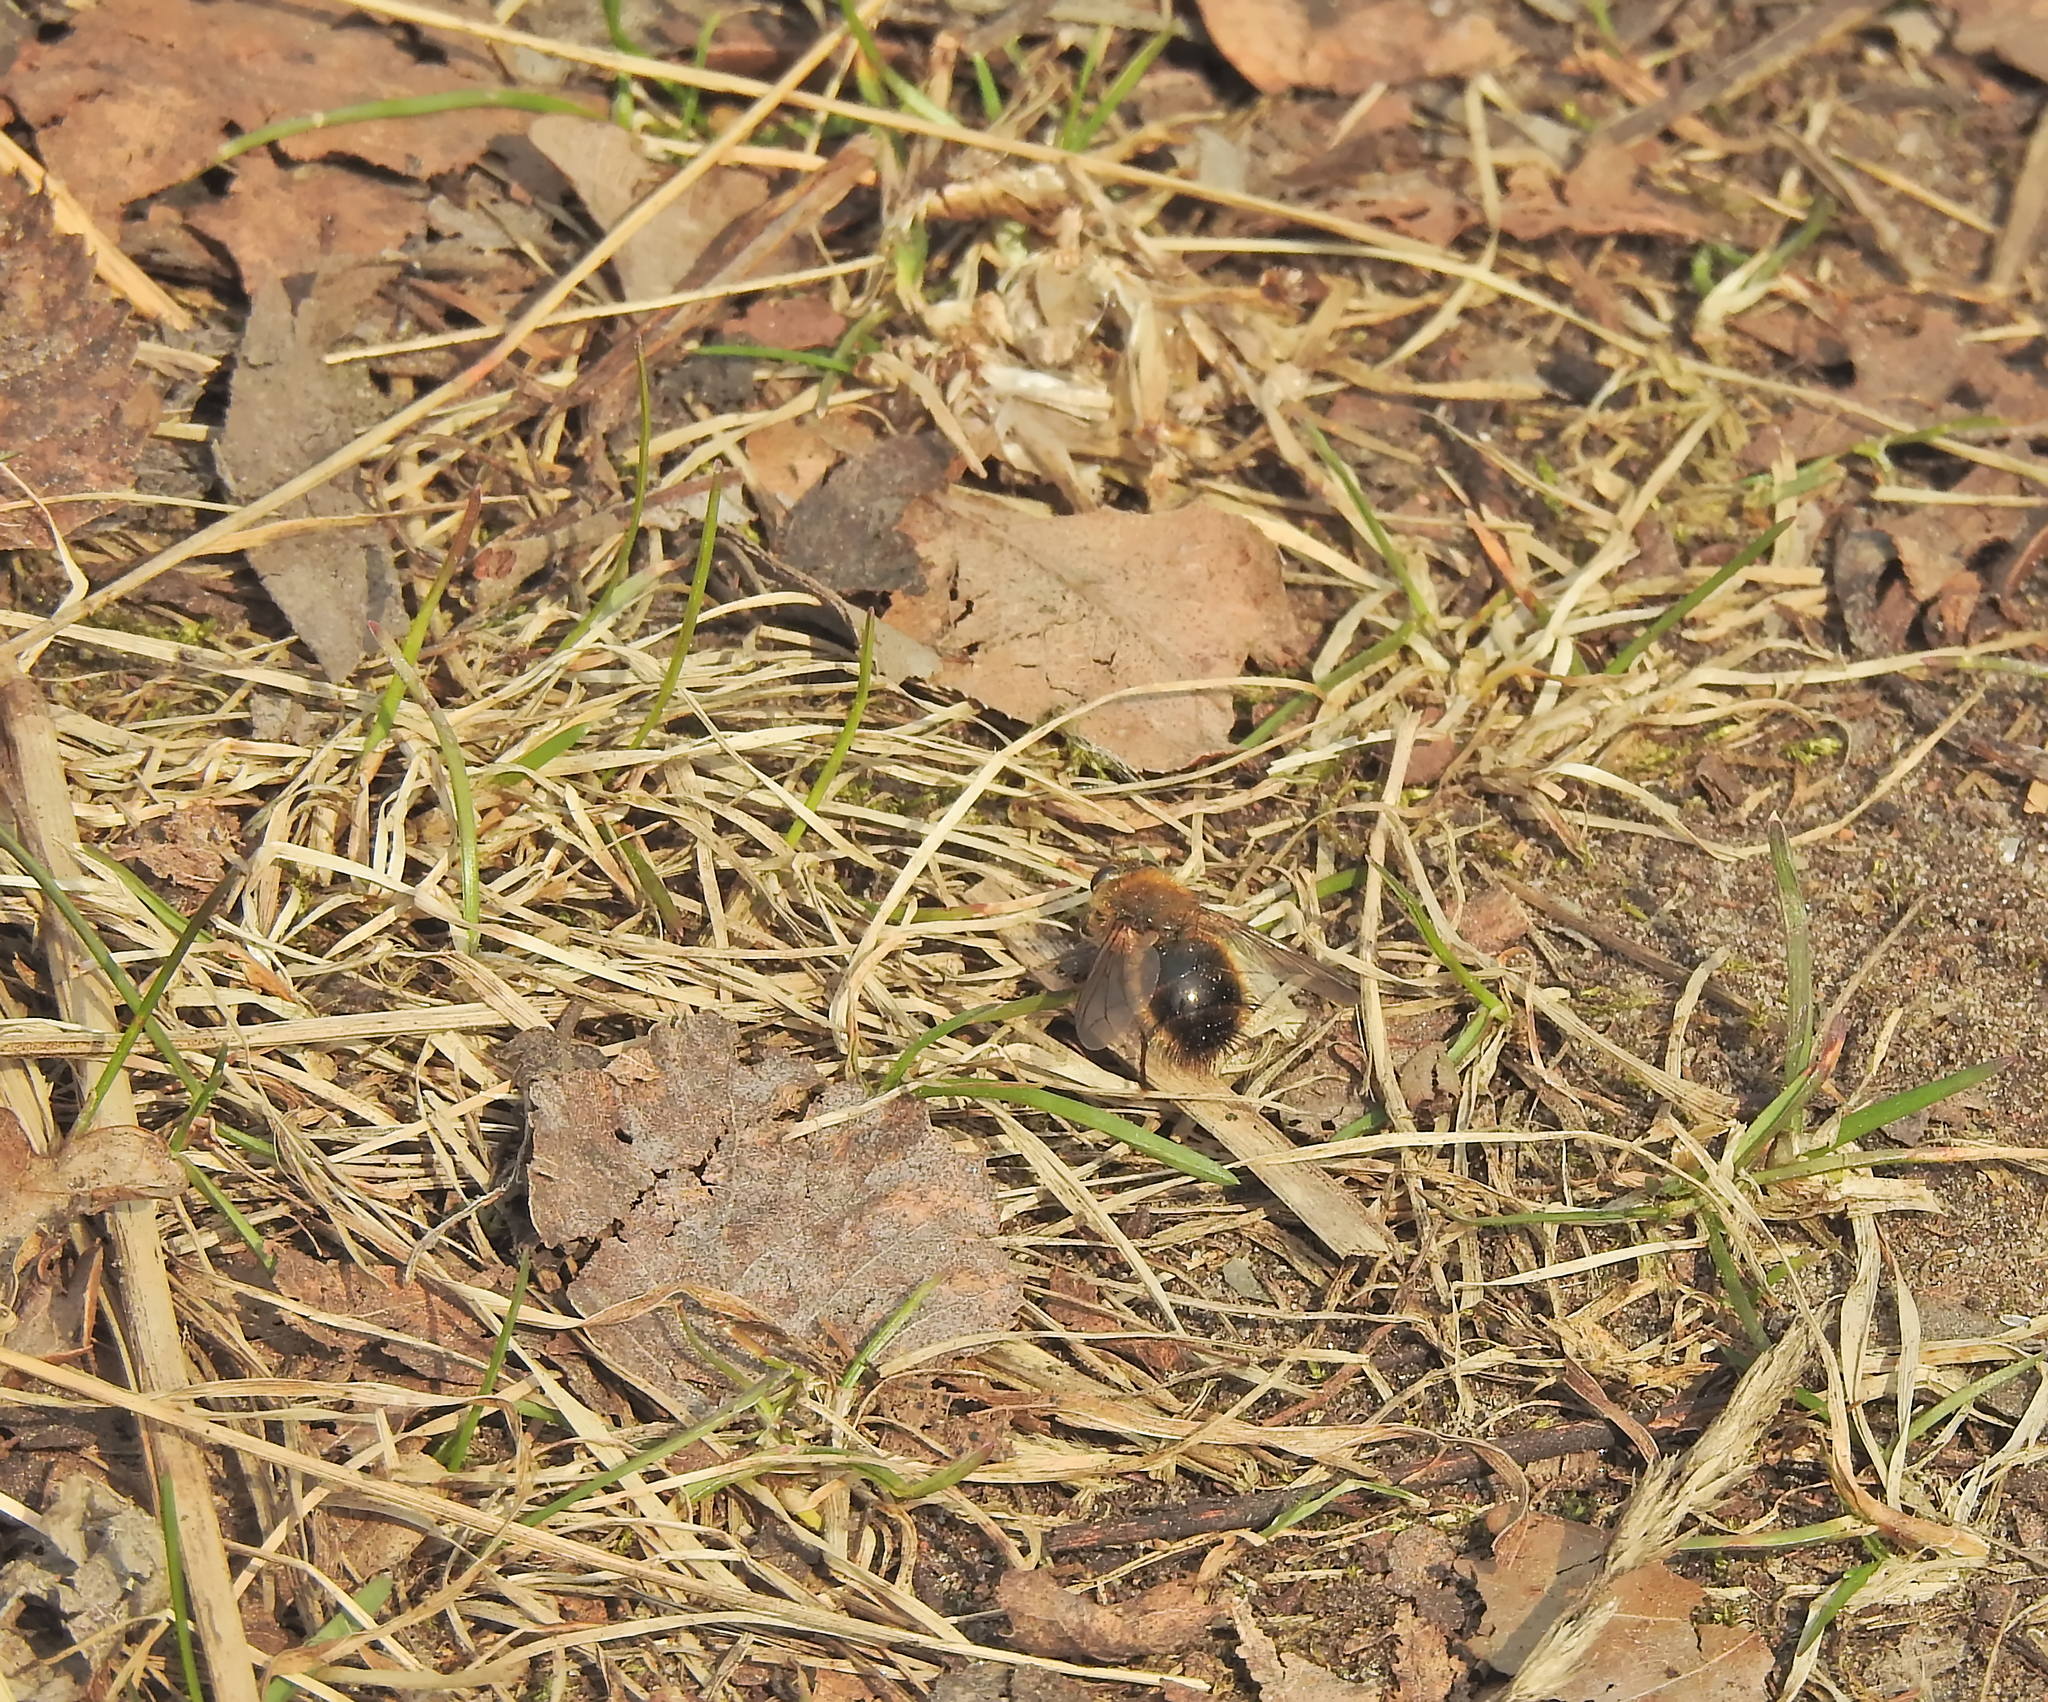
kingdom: Animalia
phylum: Arthropoda
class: Insecta
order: Diptera
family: Tachinidae
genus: Tachina
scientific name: Tachina ursina
